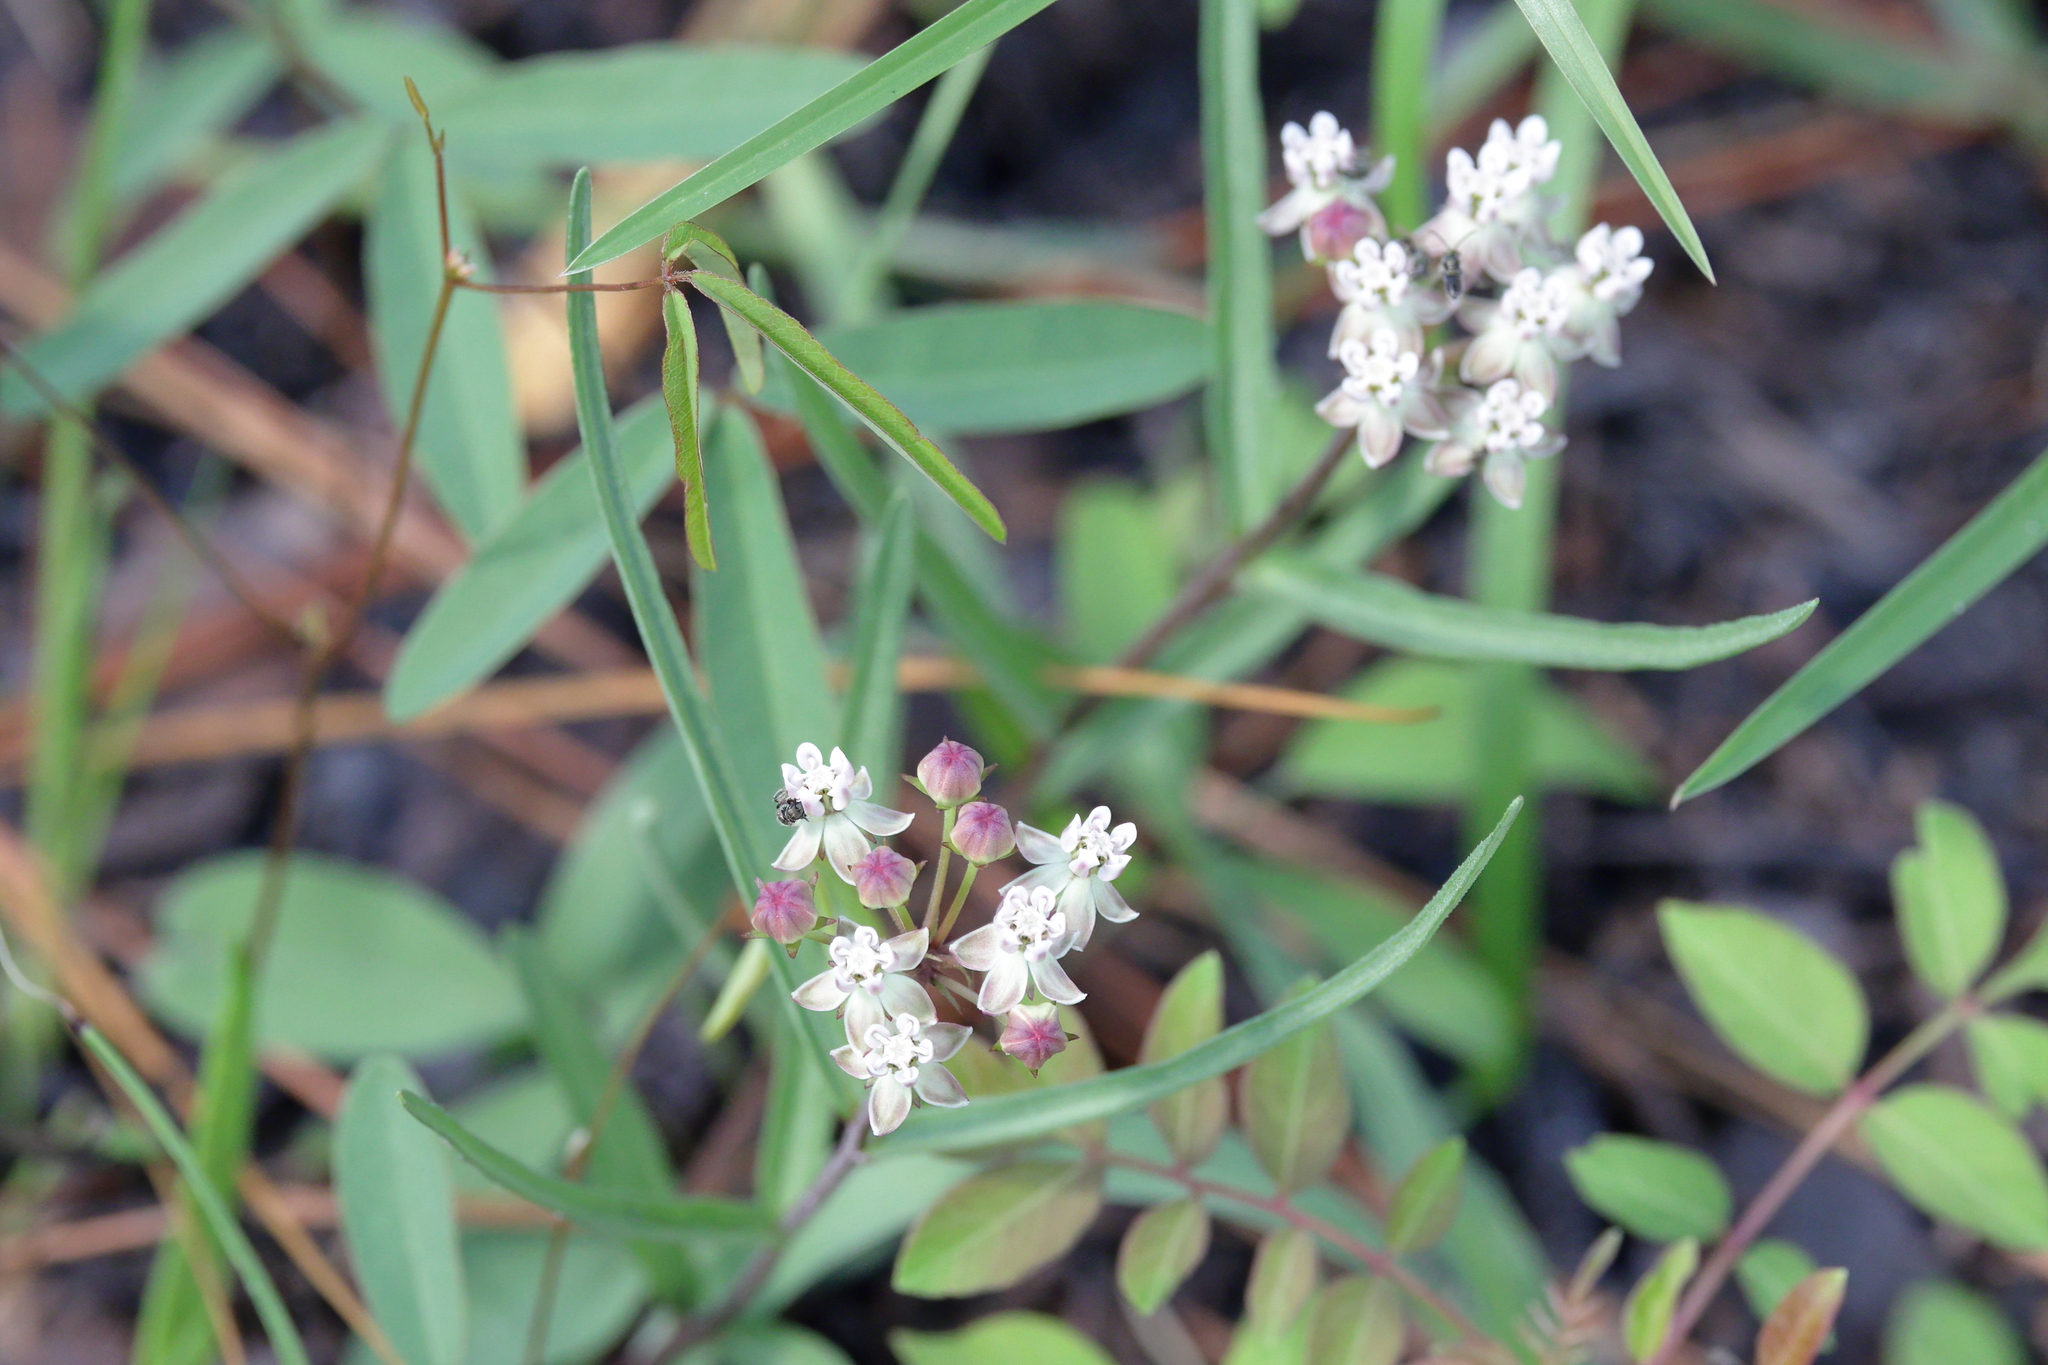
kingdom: Plantae
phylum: Tracheophyta
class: Magnoliopsida
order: Gentianales
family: Apocynaceae
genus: Asclepias
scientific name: Asclepias michauxii
